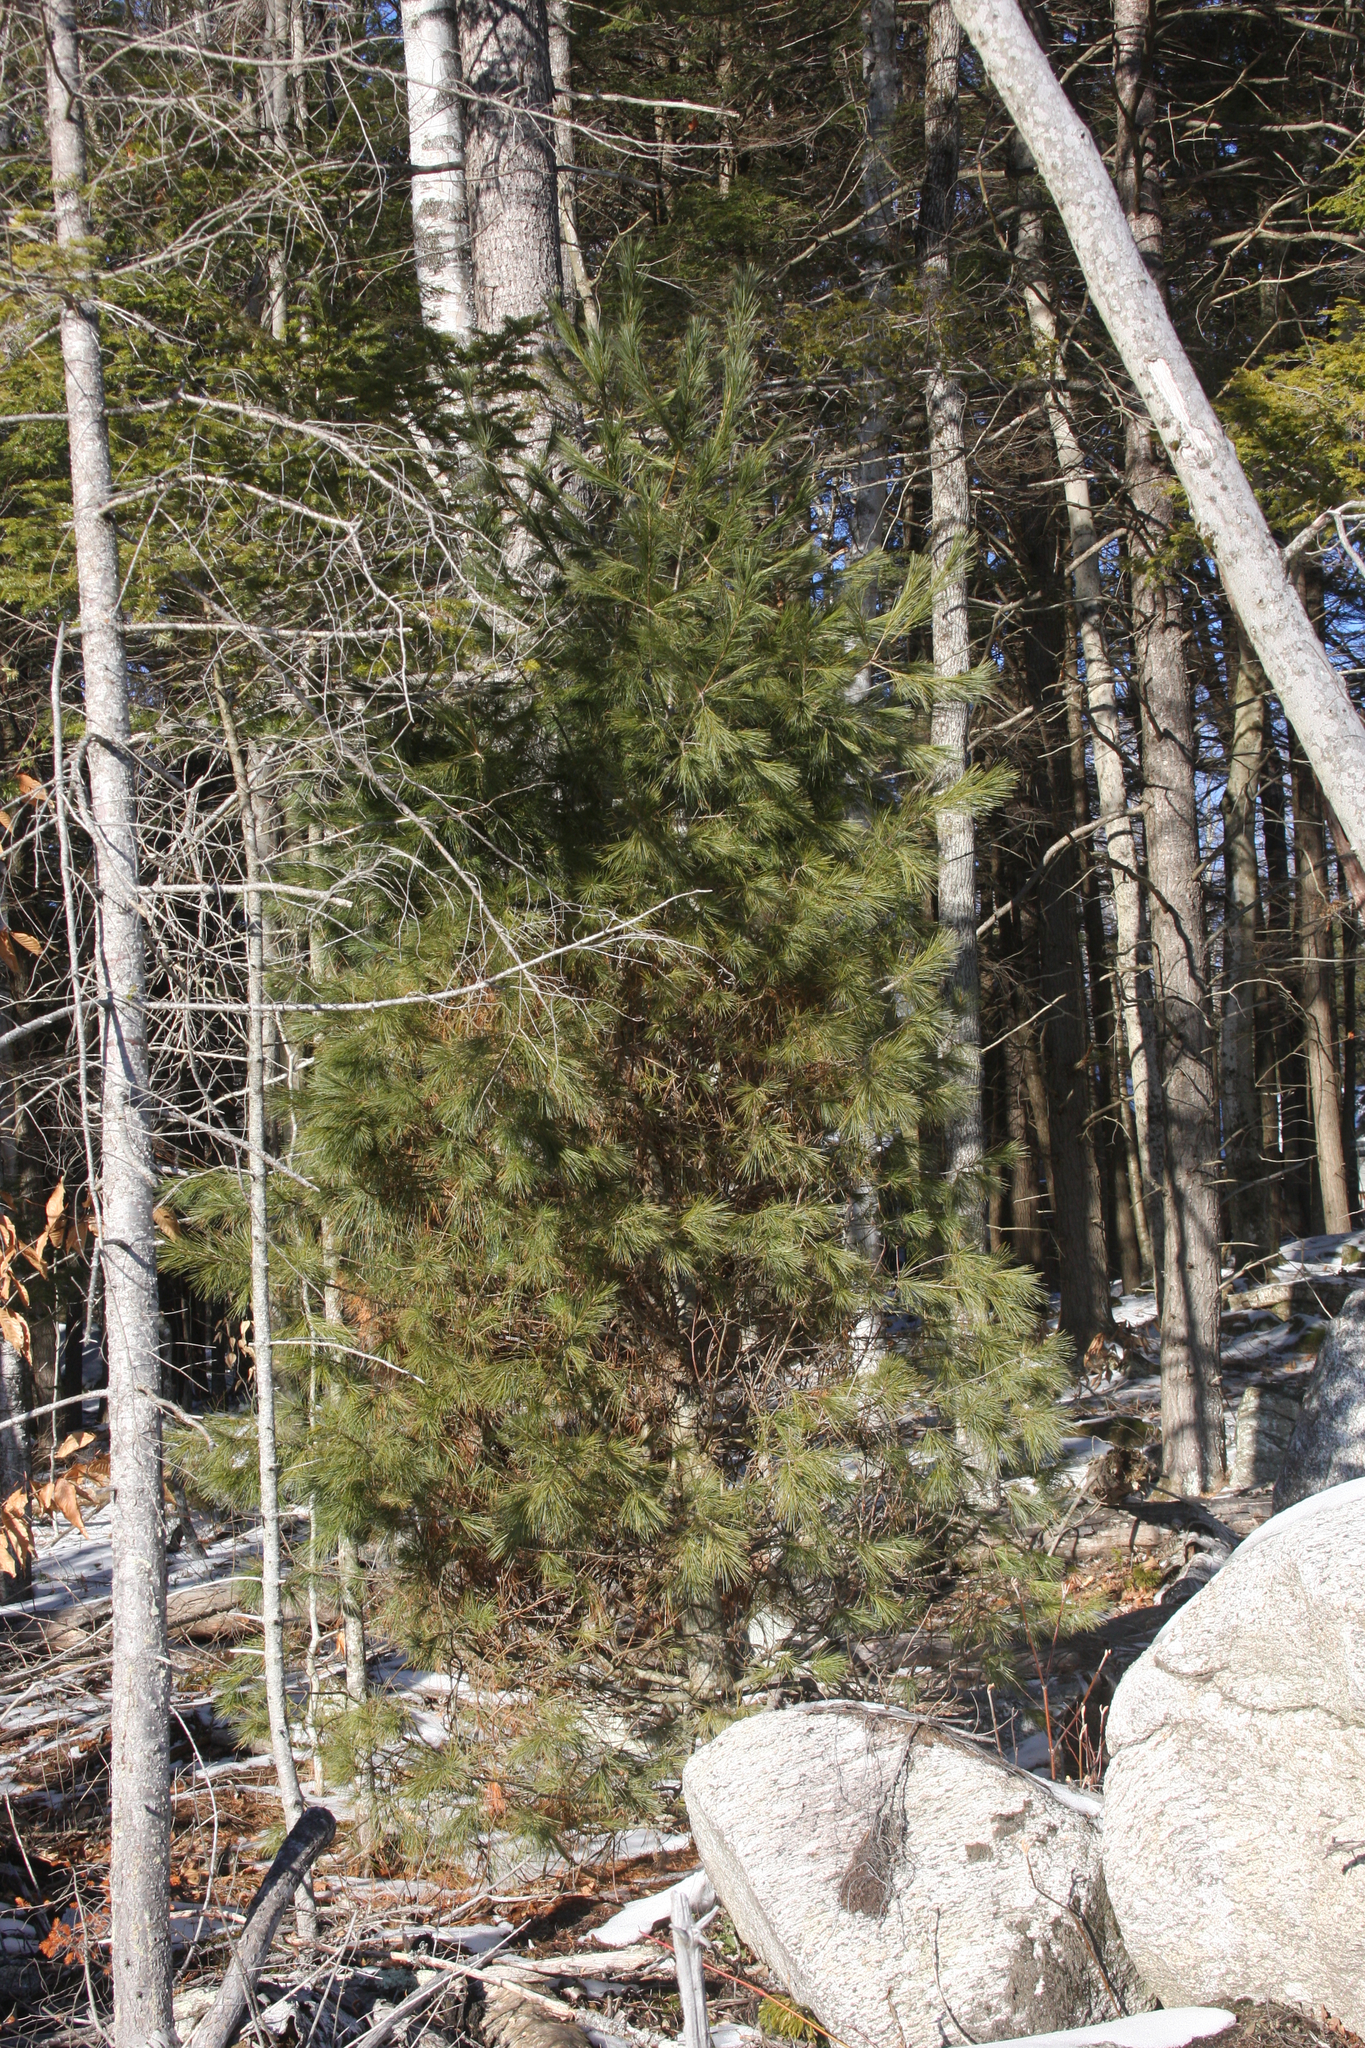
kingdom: Plantae
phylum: Tracheophyta
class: Pinopsida
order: Pinales
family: Pinaceae
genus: Pinus
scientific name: Pinus strobus
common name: Weymouth pine
